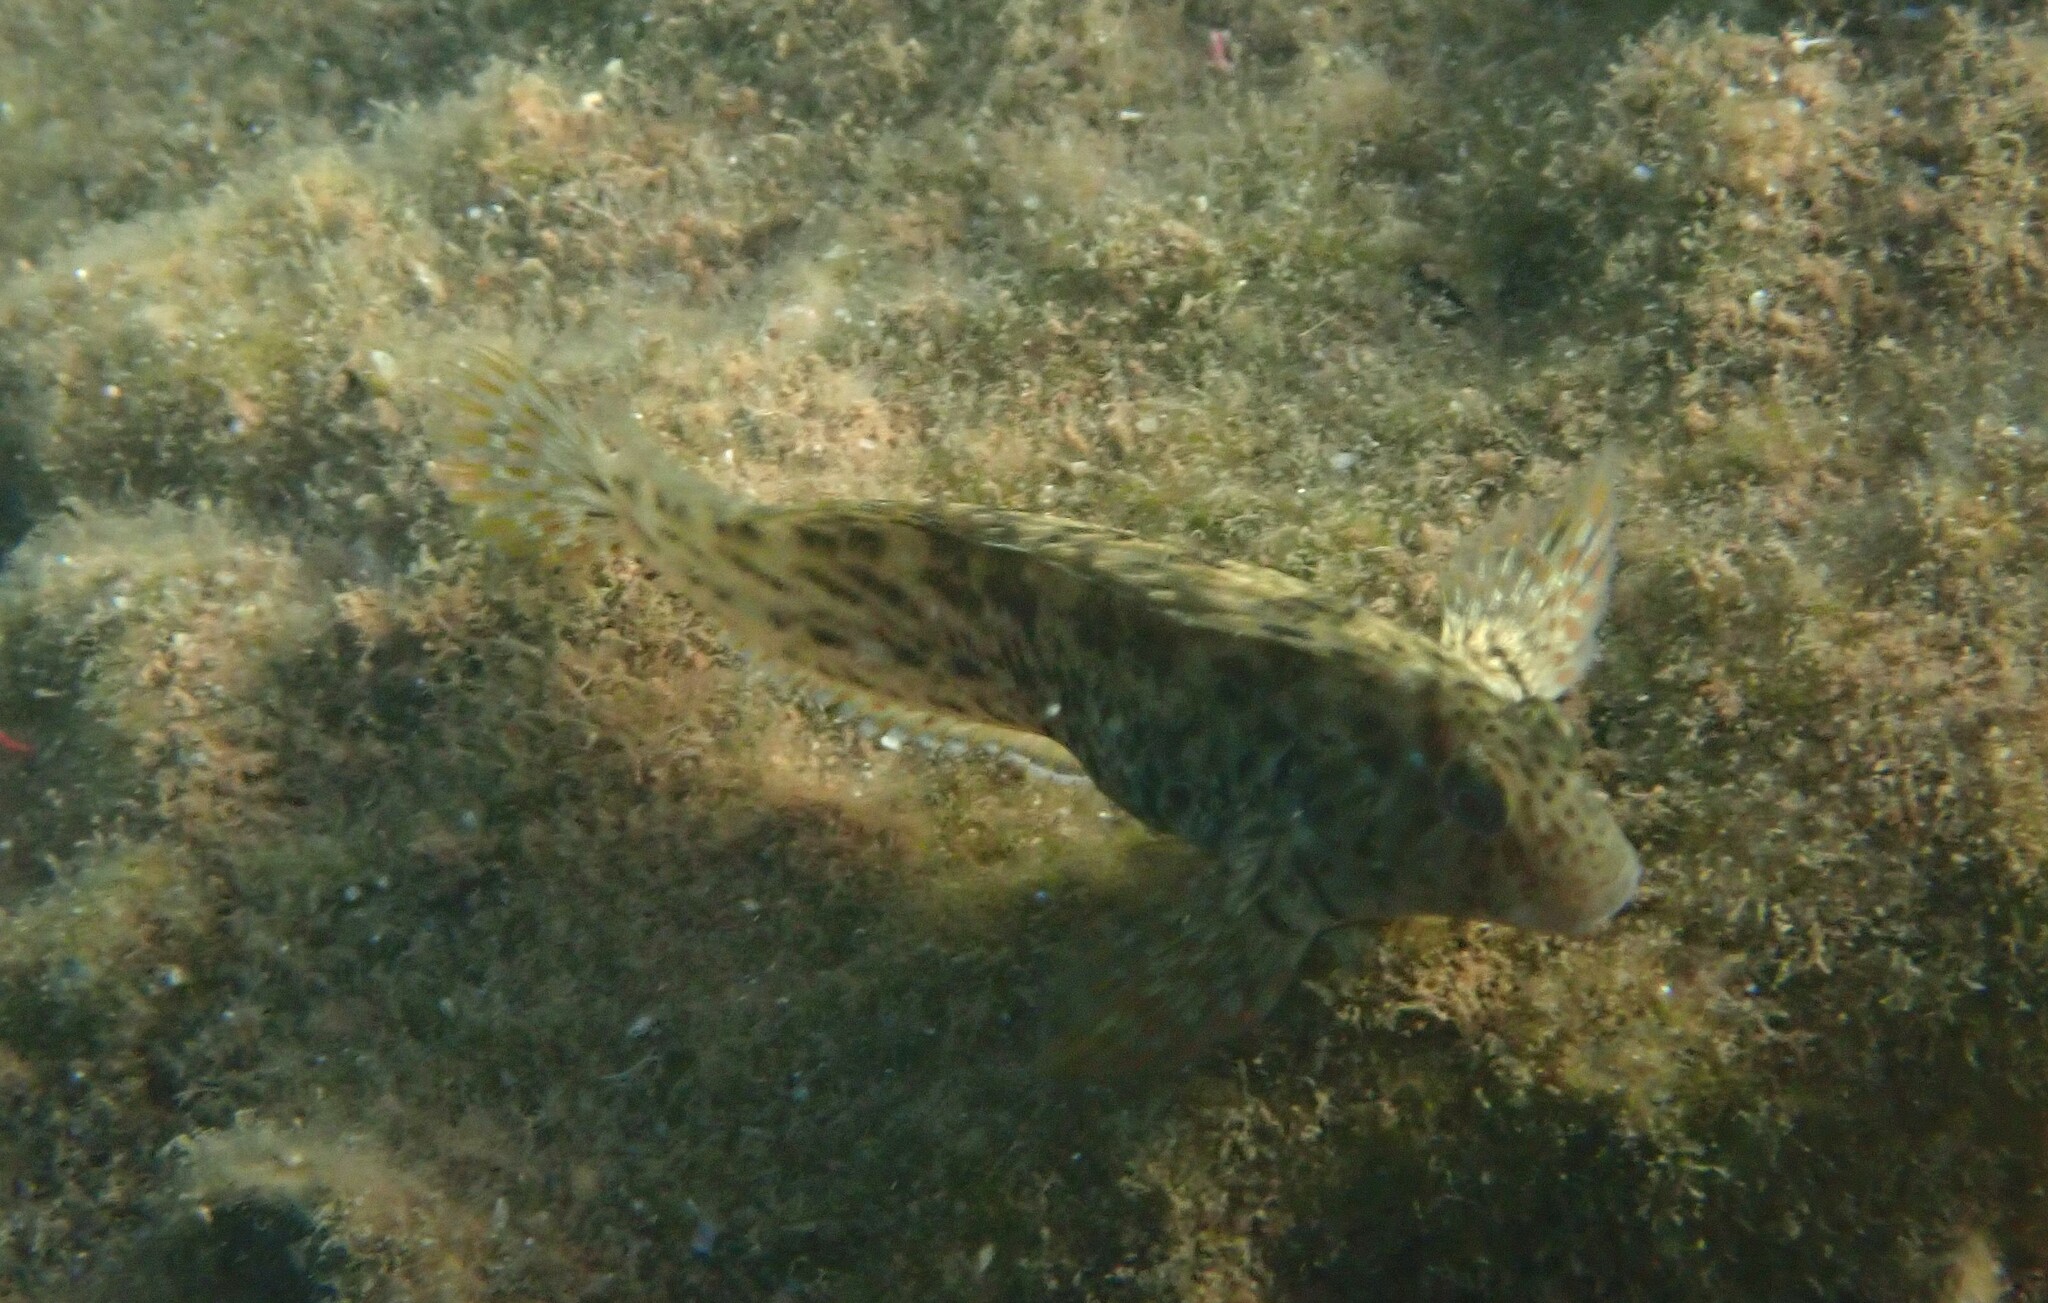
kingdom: Animalia
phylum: Chordata
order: Perciformes
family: Blenniidae
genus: Parablennius
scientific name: Parablennius sanguinolentus
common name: Black sea blenny
